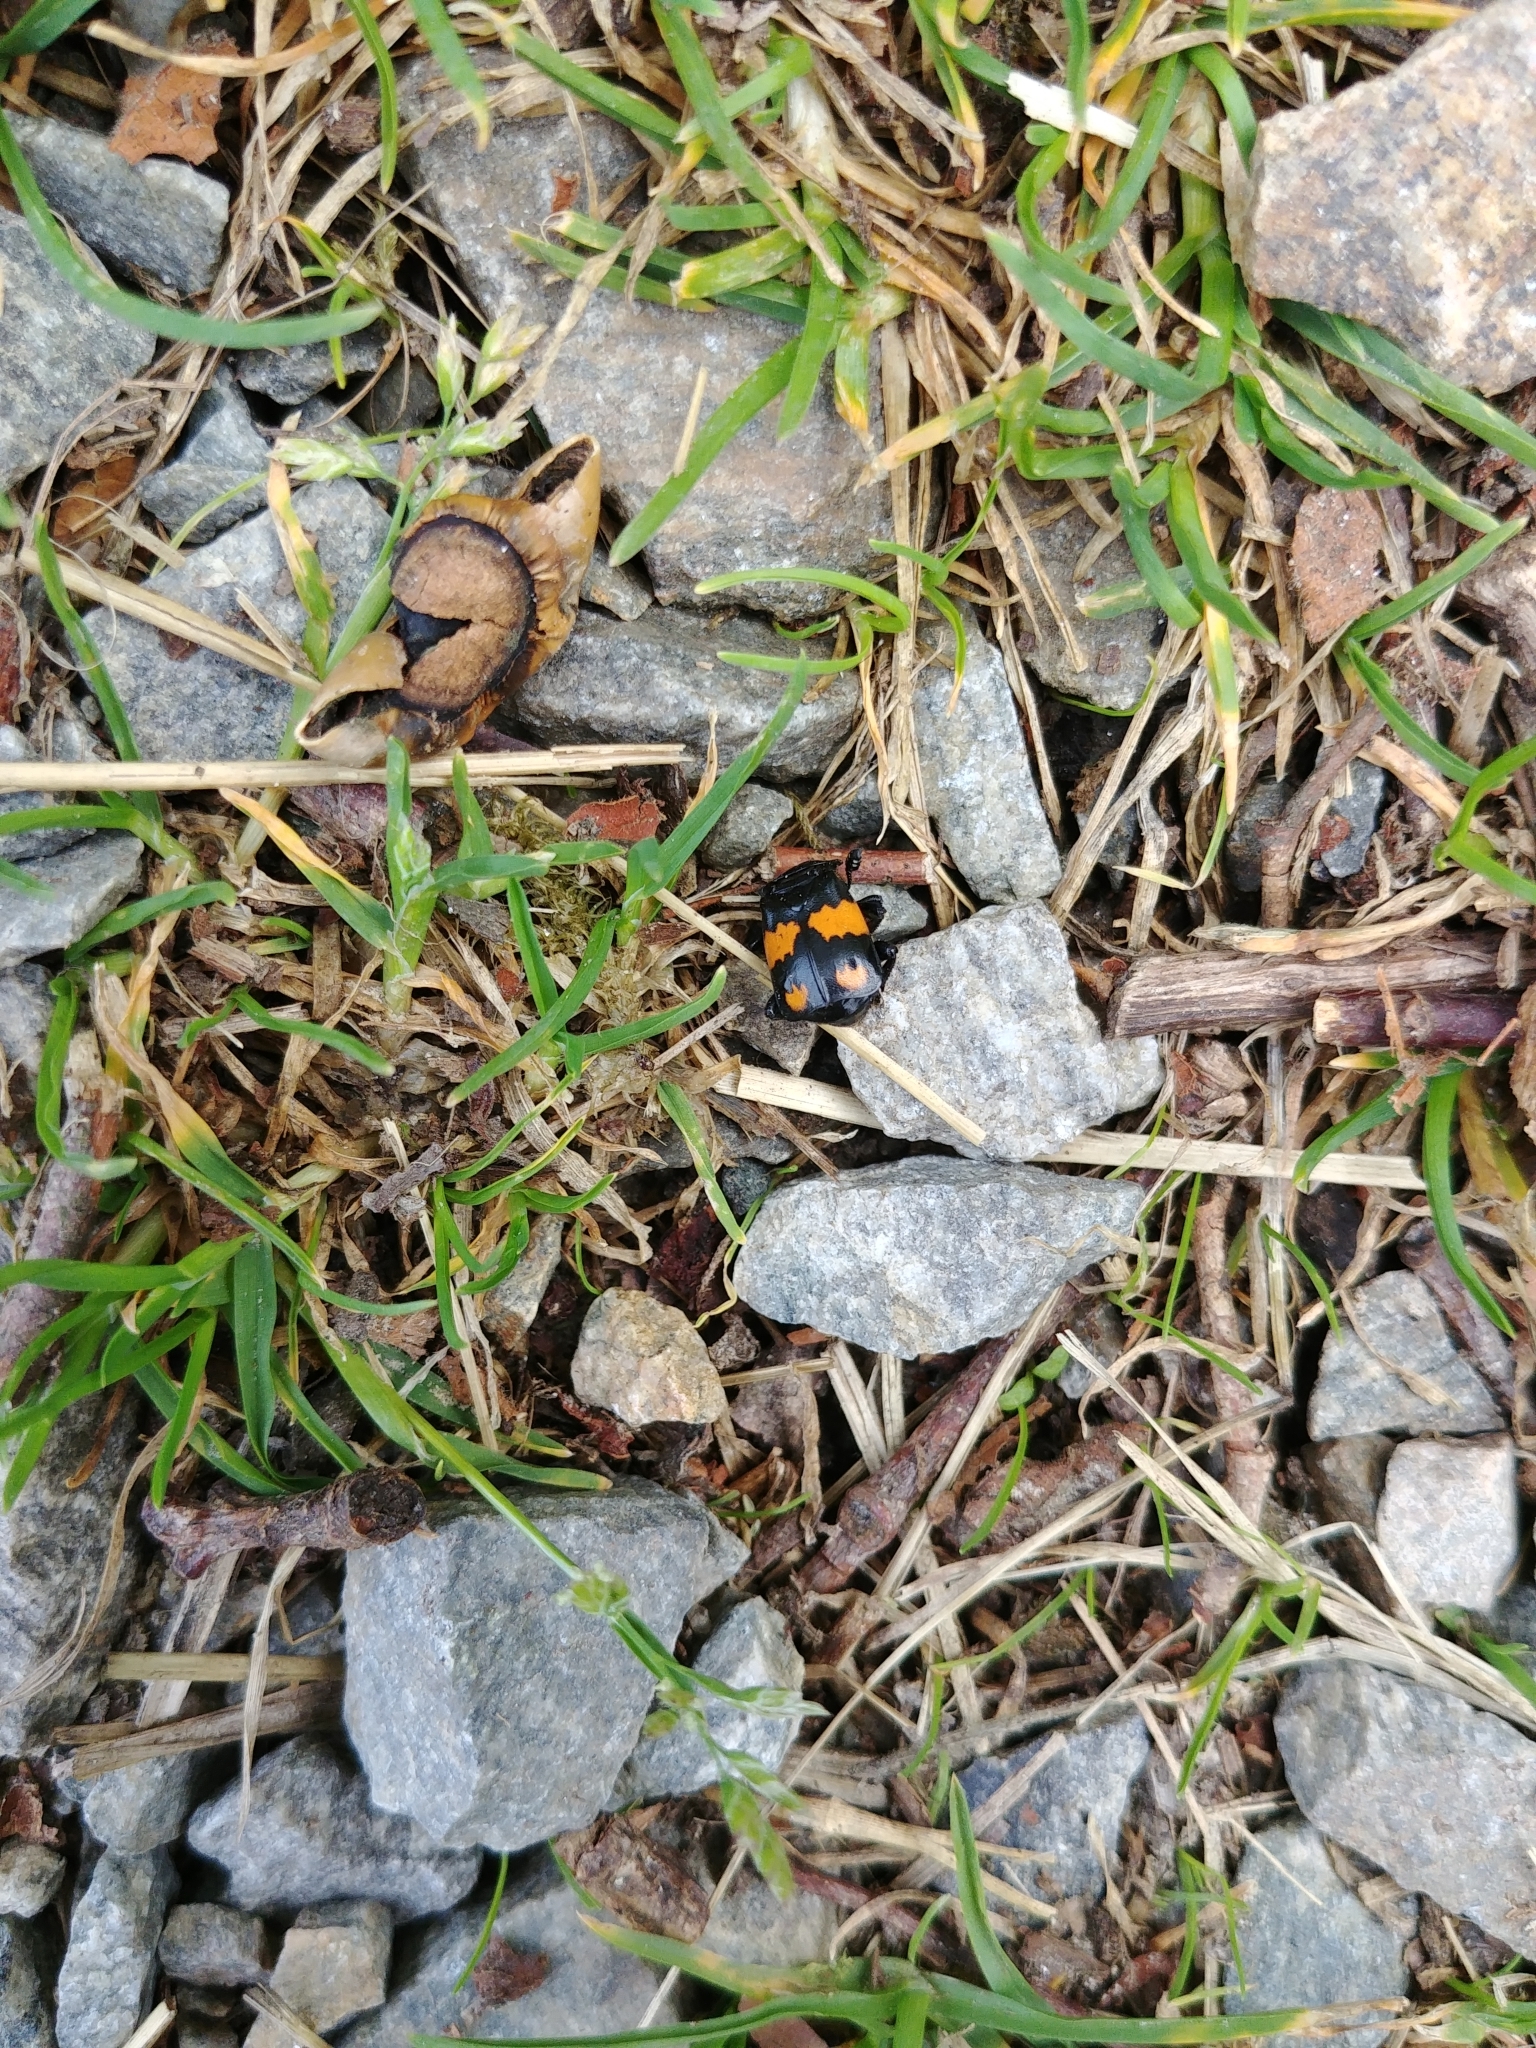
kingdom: Animalia
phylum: Arthropoda
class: Insecta
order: Coleoptera
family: Staphylinidae
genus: Nicrophorus
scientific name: Nicrophorus vespilloides
